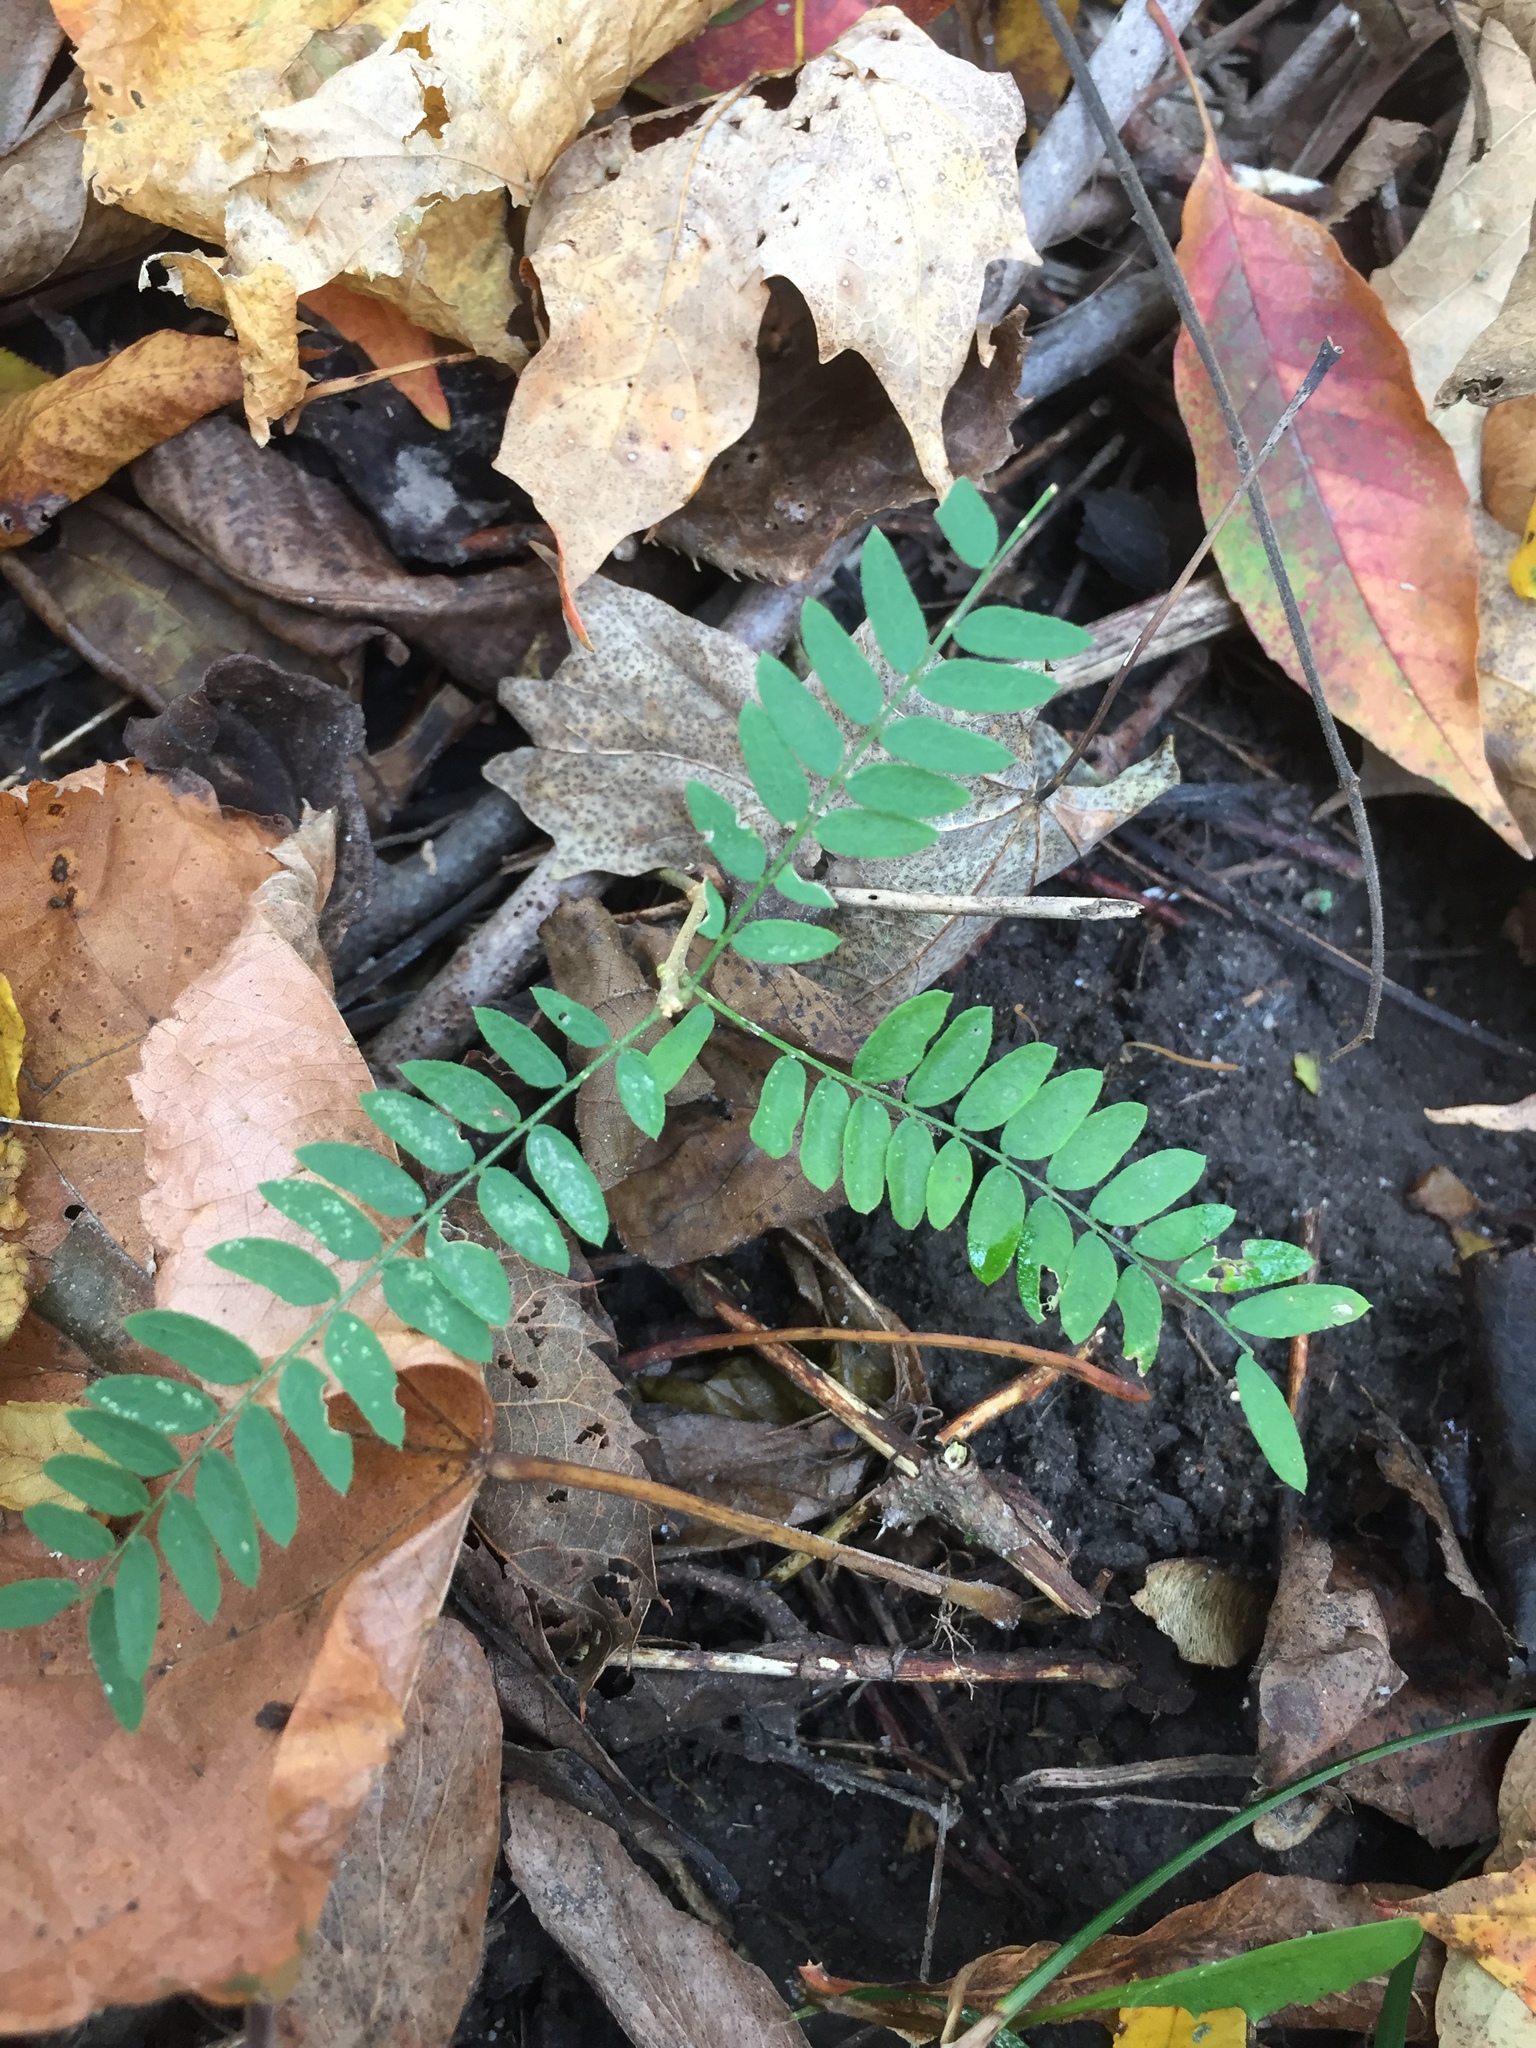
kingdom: Plantae
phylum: Tracheophyta
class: Magnoliopsida
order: Fabales
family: Fabaceae
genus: Gleditsia
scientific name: Gleditsia triacanthos
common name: Common honeylocust
